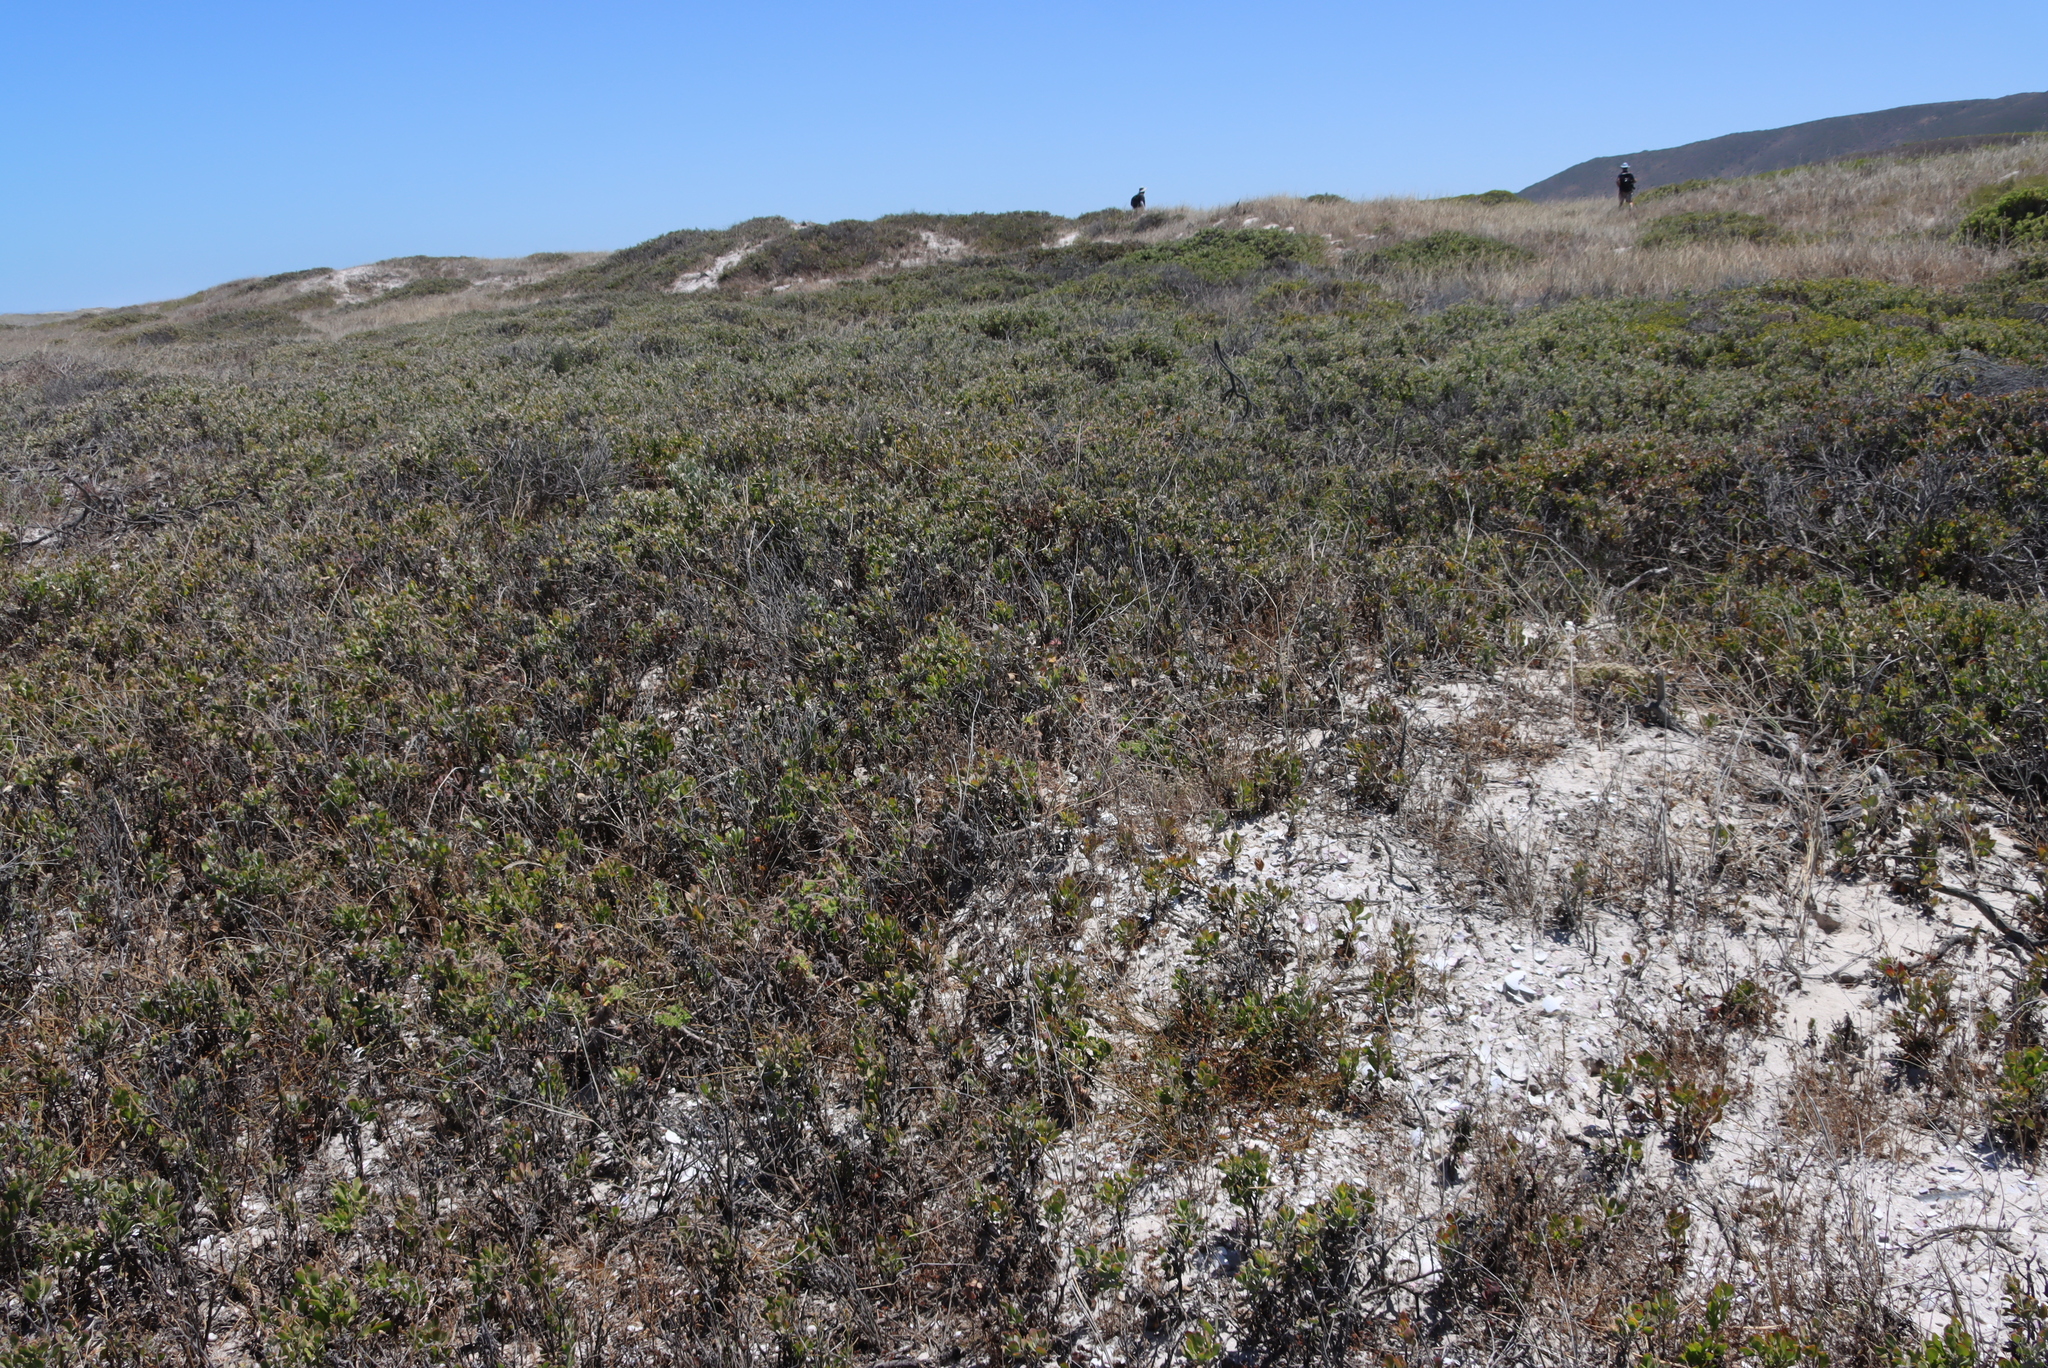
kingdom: Plantae
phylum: Tracheophyta
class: Magnoliopsida
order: Asterales
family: Asteraceae
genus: Osteospermum
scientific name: Osteospermum incanum
